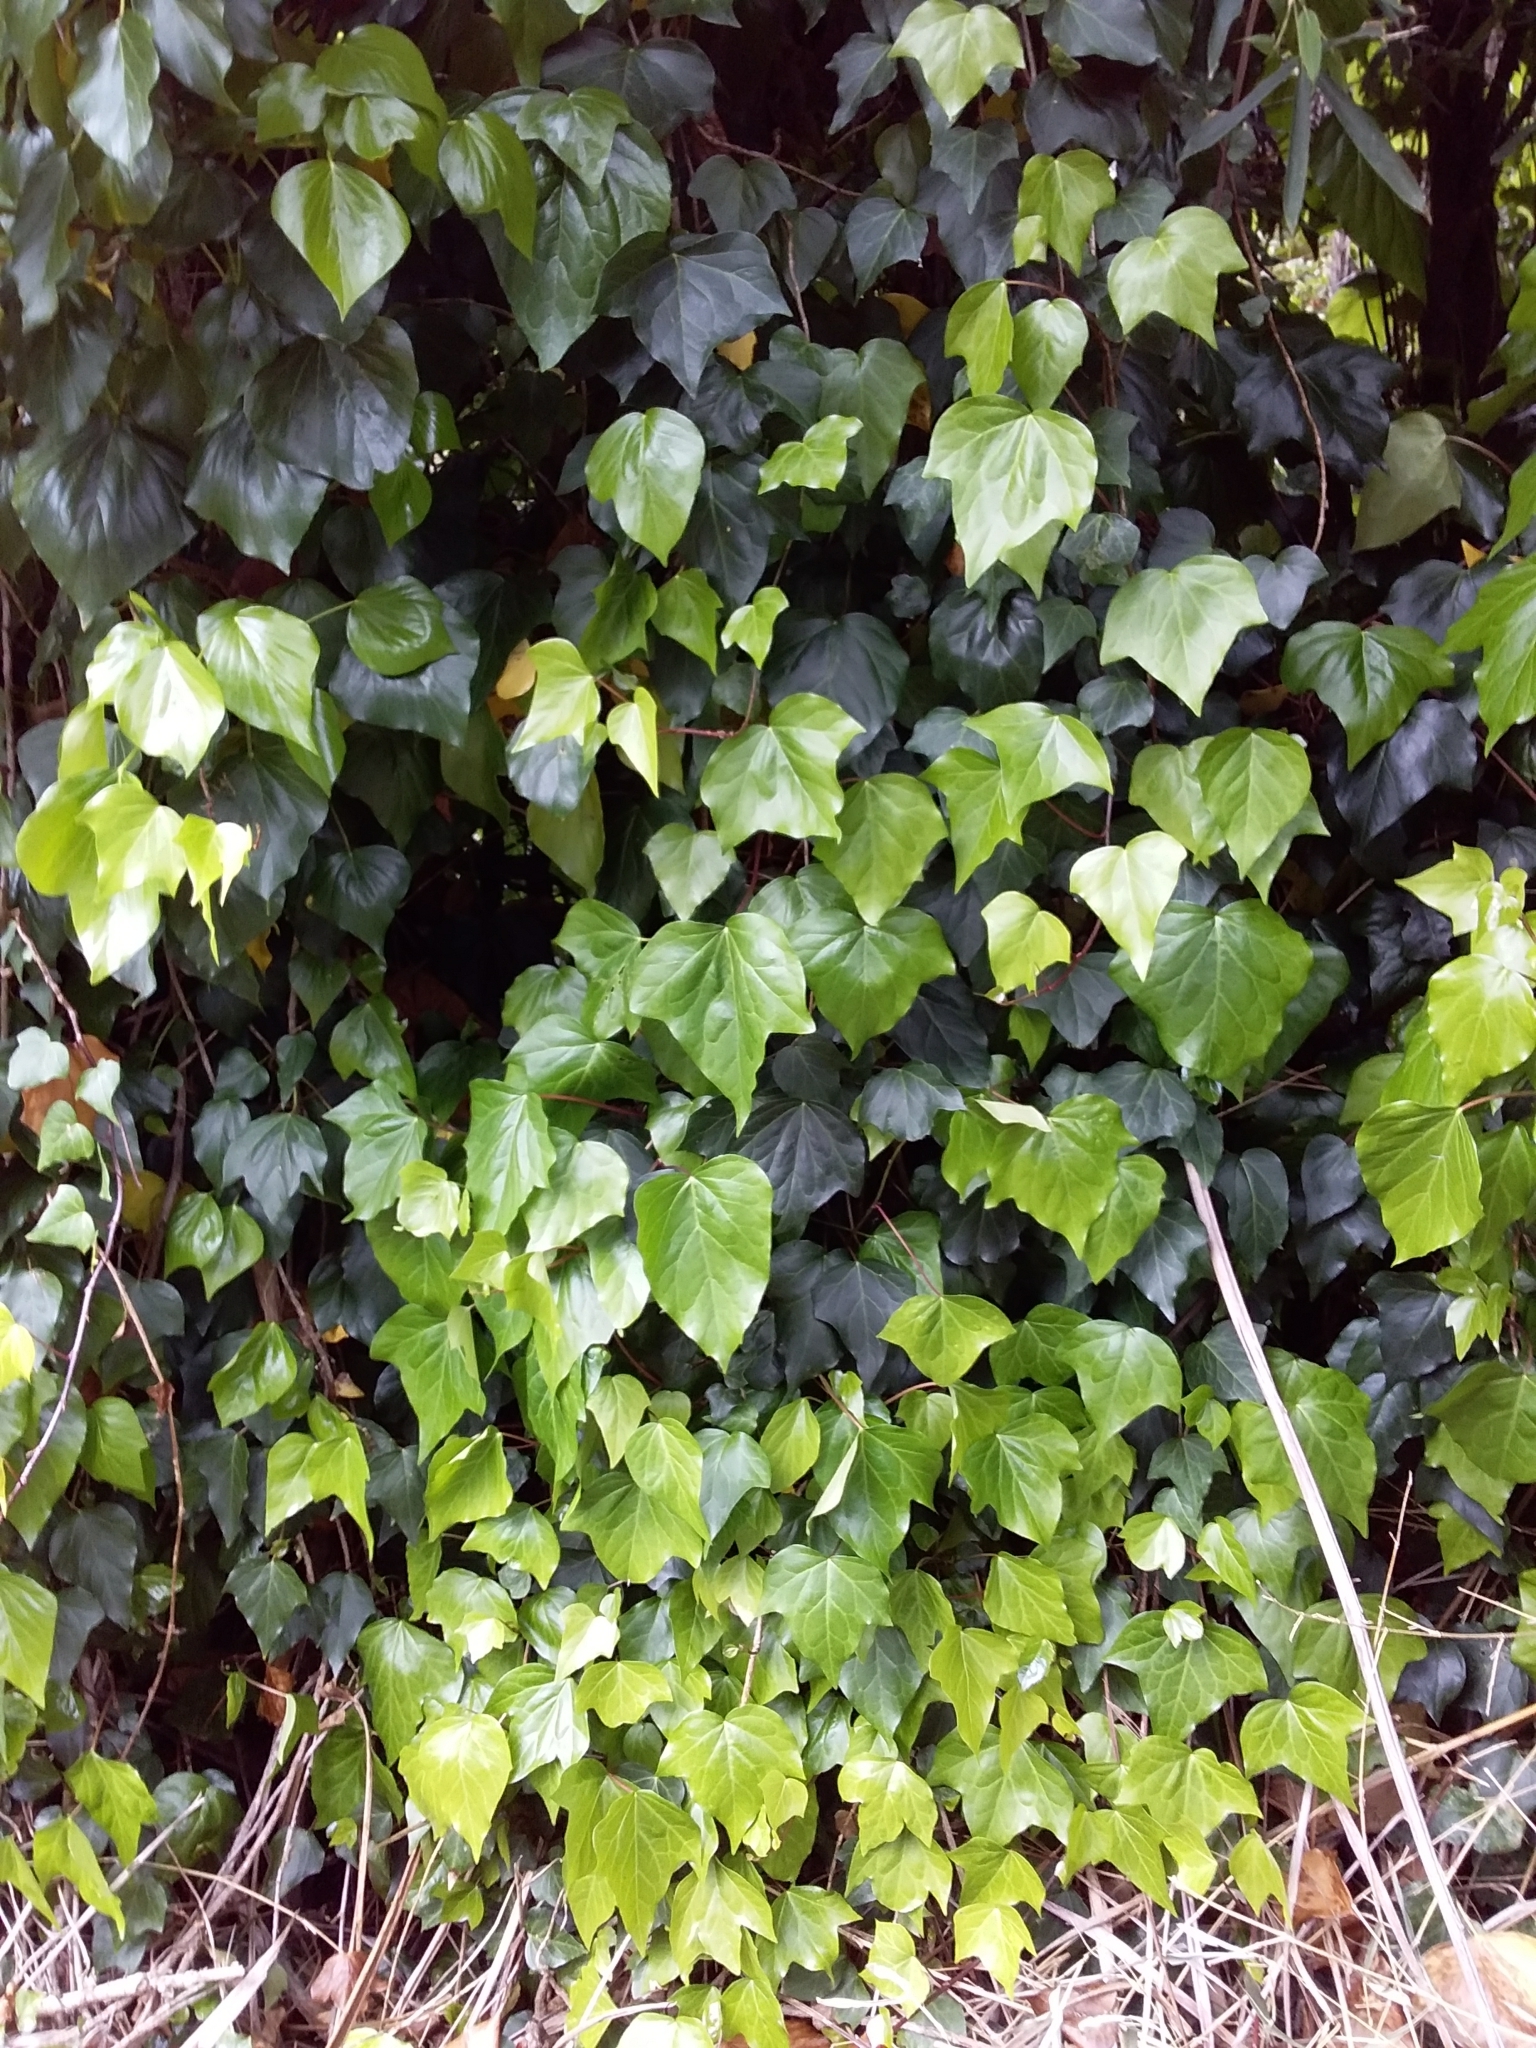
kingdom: Plantae
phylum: Tracheophyta
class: Magnoliopsida
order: Apiales
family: Araliaceae
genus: Hedera
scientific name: Hedera helix
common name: Ivy
